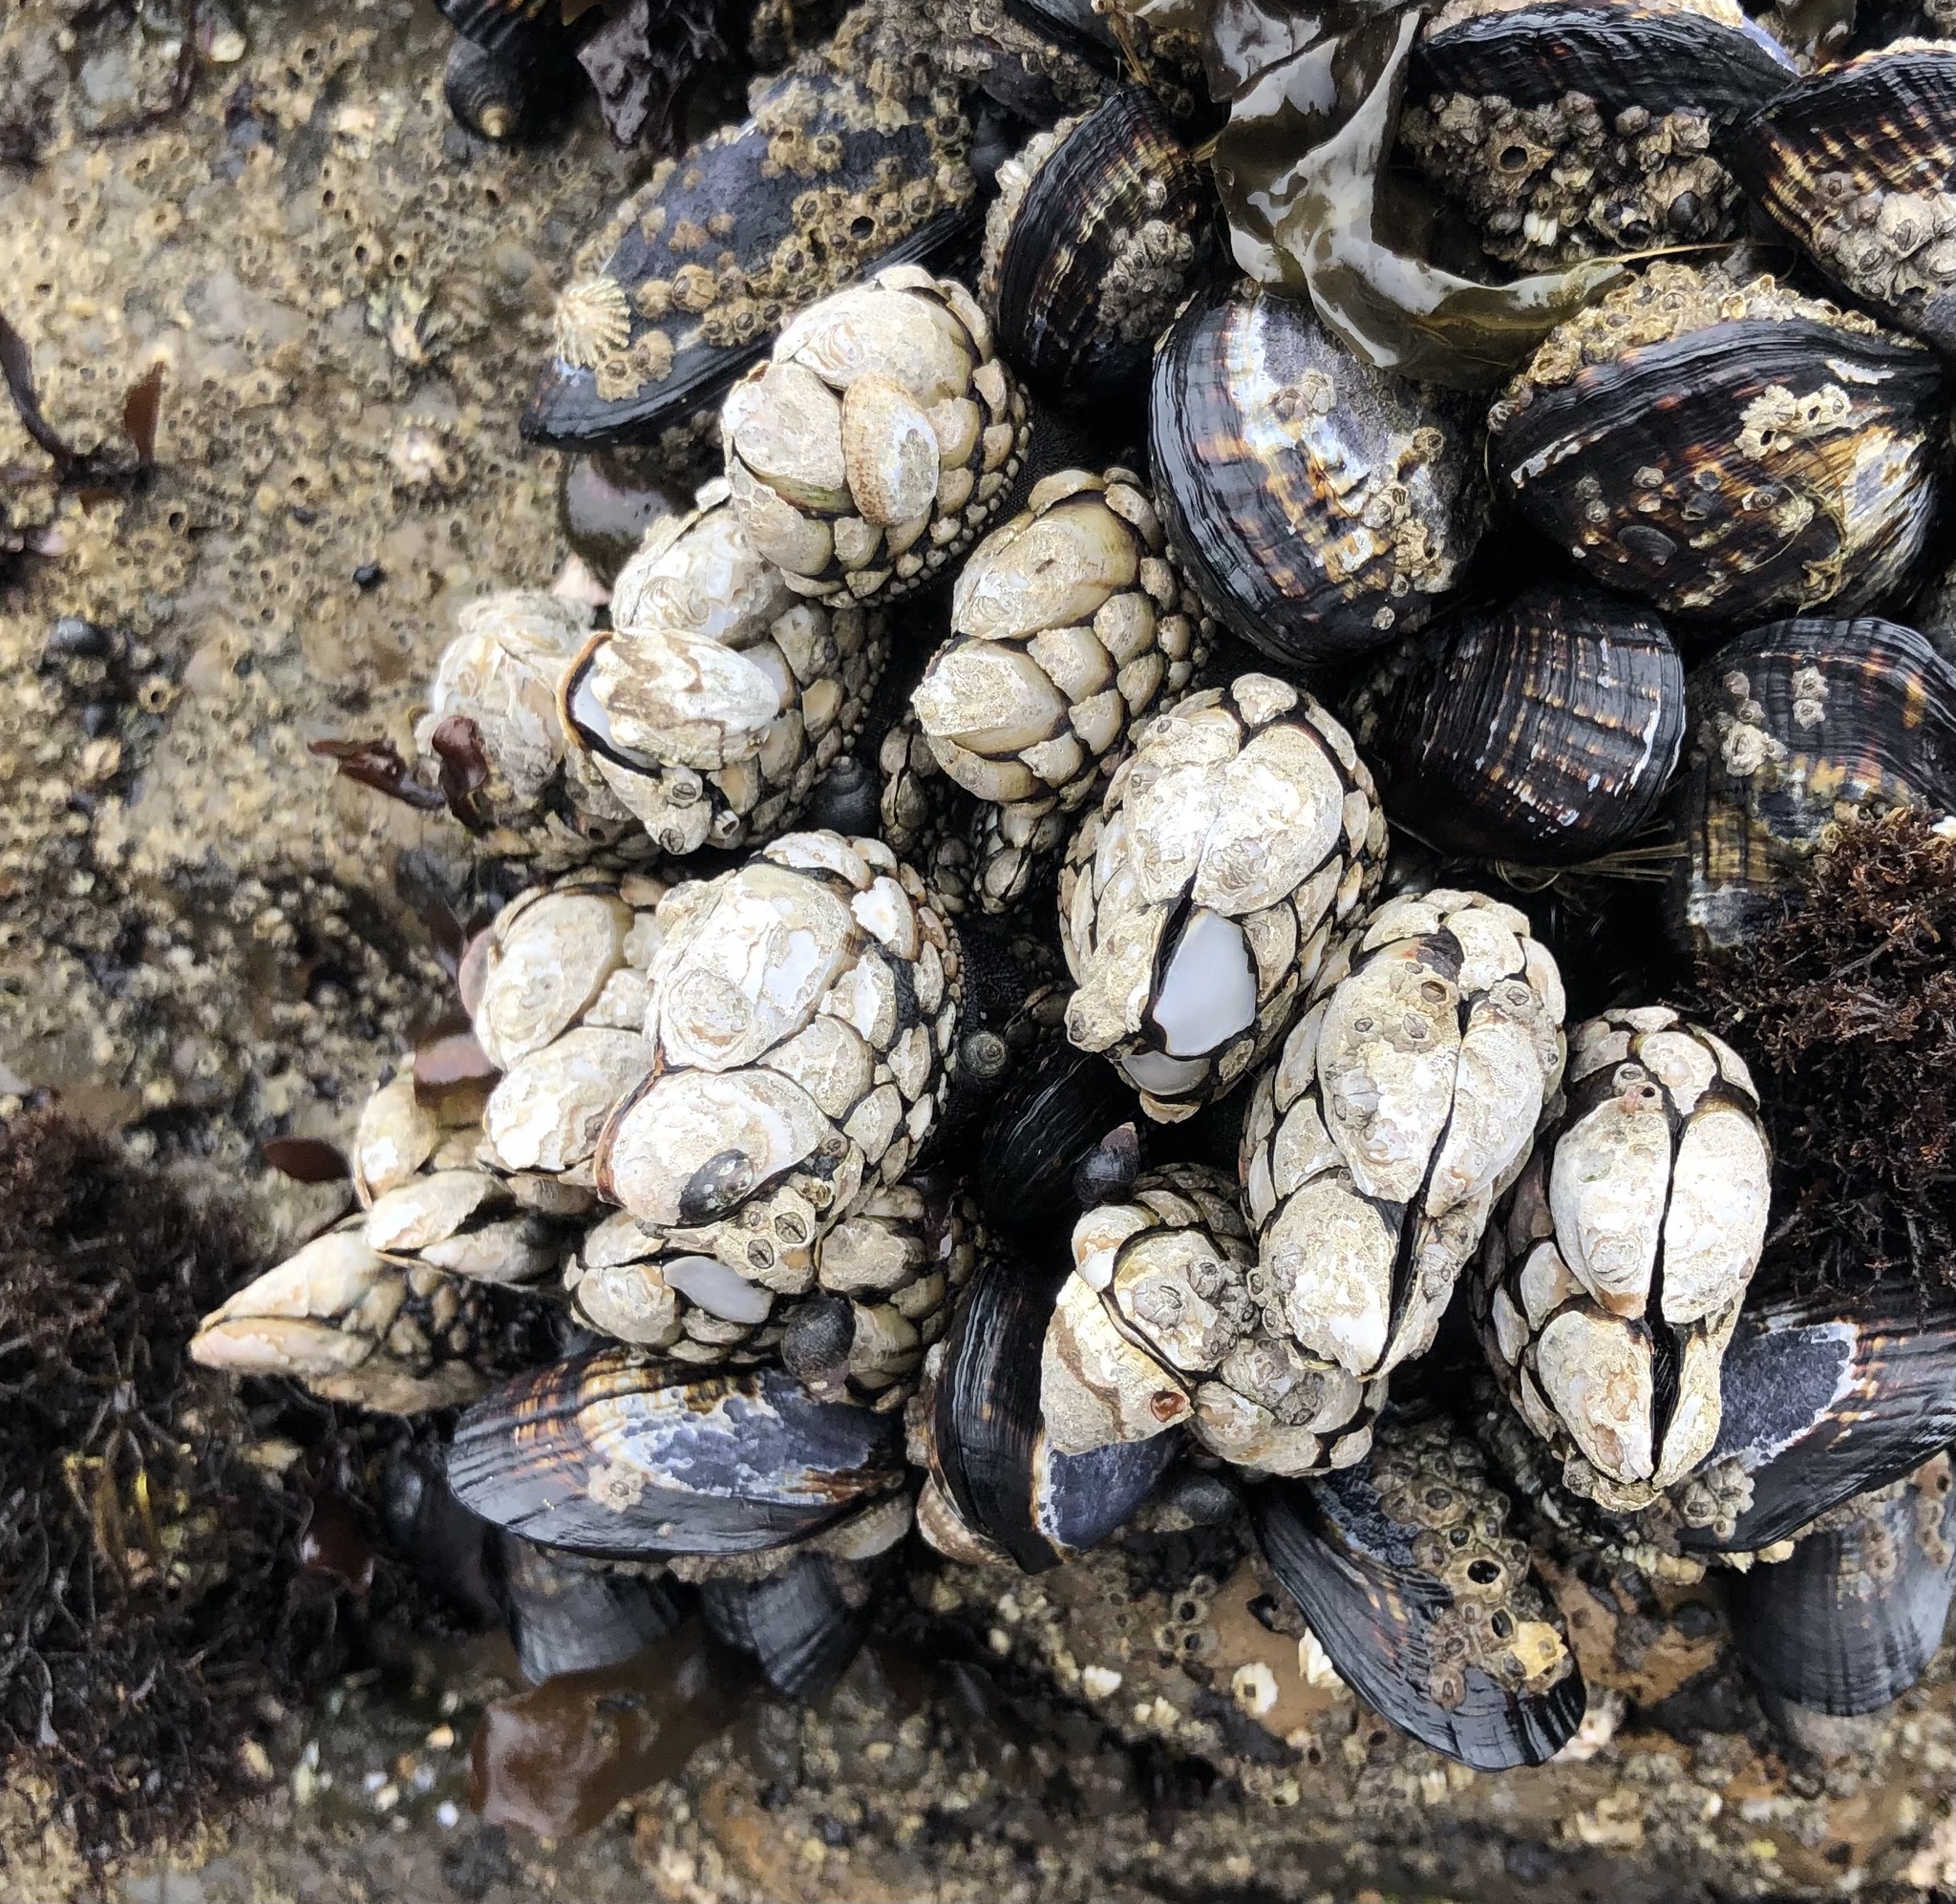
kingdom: Animalia
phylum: Arthropoda
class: Maxillopoda
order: Pedunculata
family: Pollicipedidae
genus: Pollicipes
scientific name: Pollicipes polymerus
